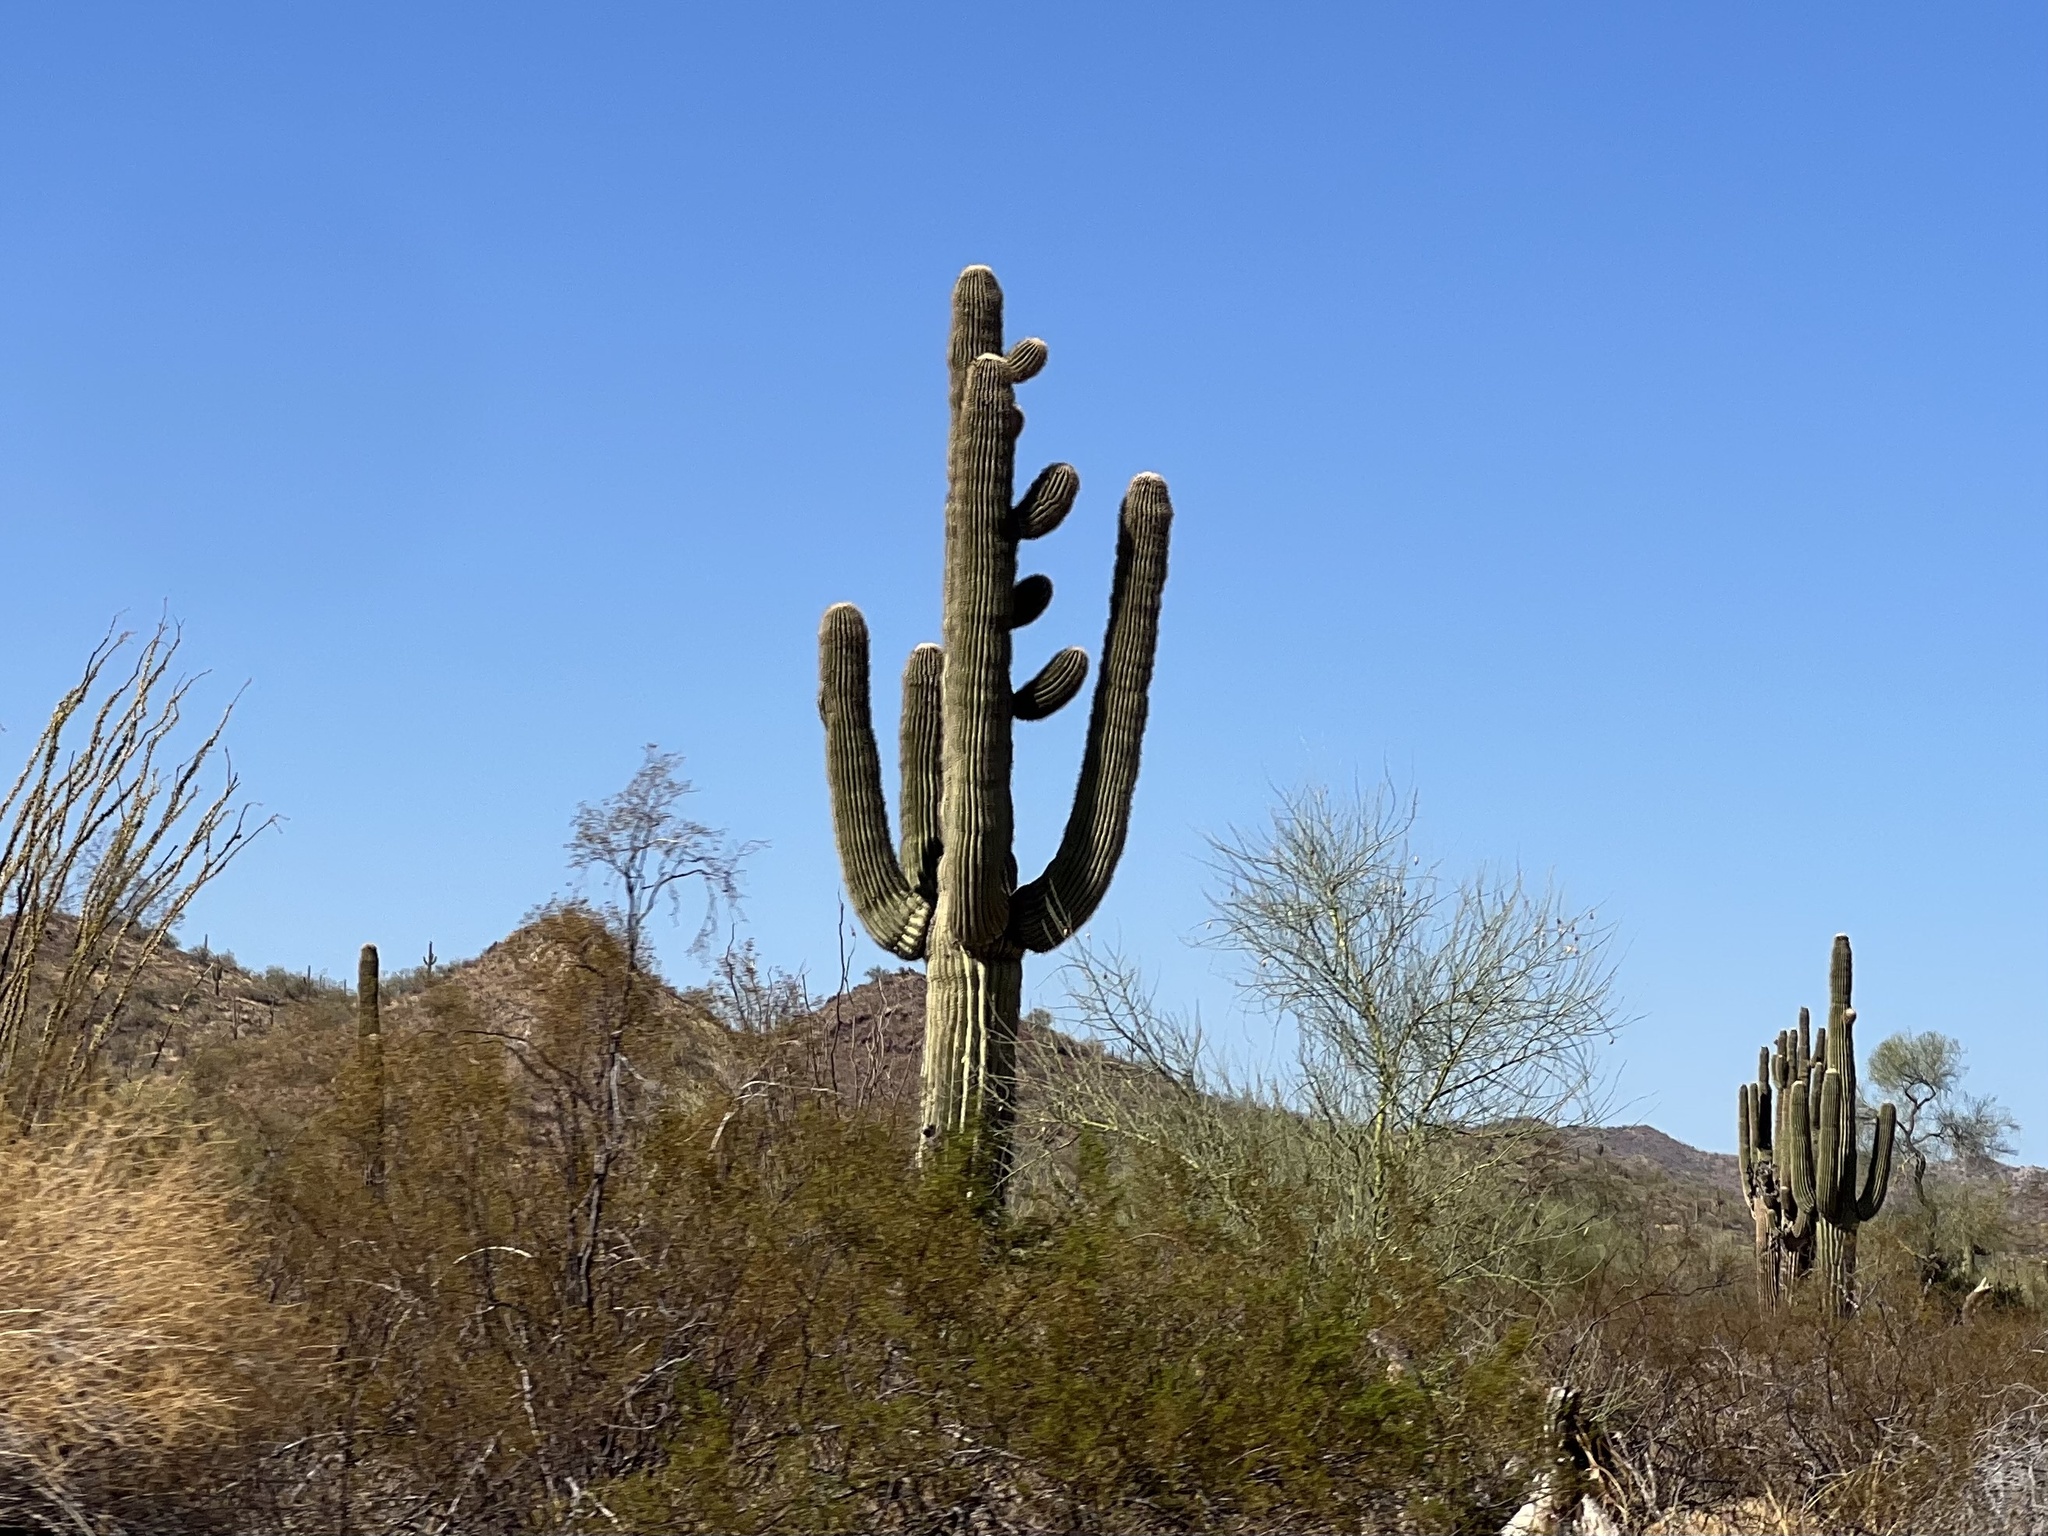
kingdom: Plantae
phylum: Tracheophyta
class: Magnoliopsida
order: Caryophyllales
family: Cactaceae
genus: Carnegiea
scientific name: Carnegiea gigantea
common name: Saguaro
